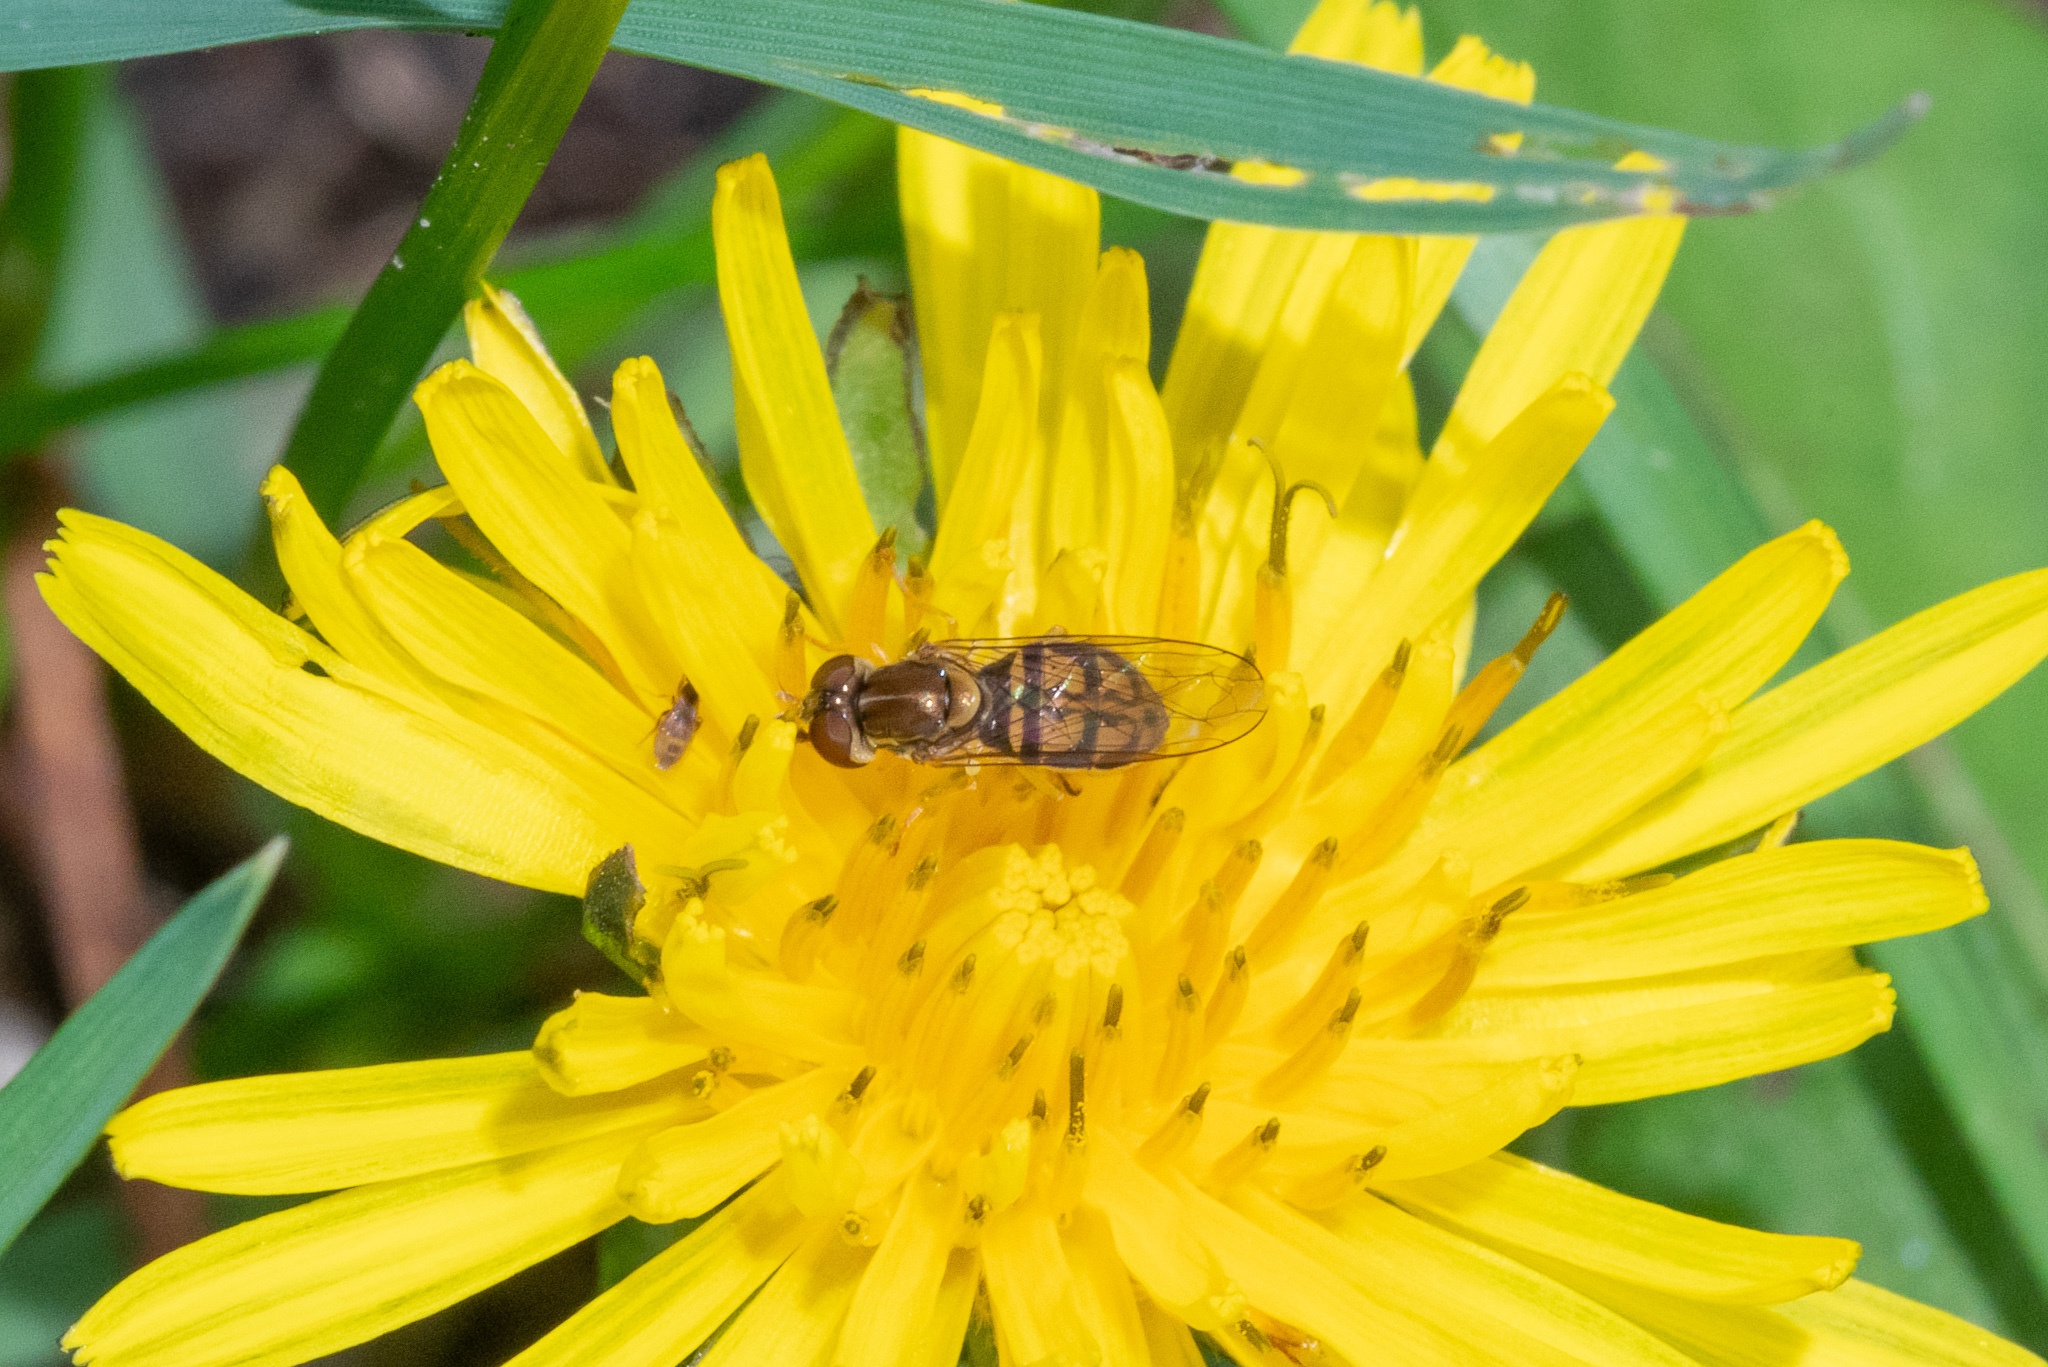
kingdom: Animalia
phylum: Arthropoda
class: Insecta
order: Diptera
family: Syrphidae
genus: Toxomerus
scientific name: Toxomerus marginatus
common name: Syrphid fly
